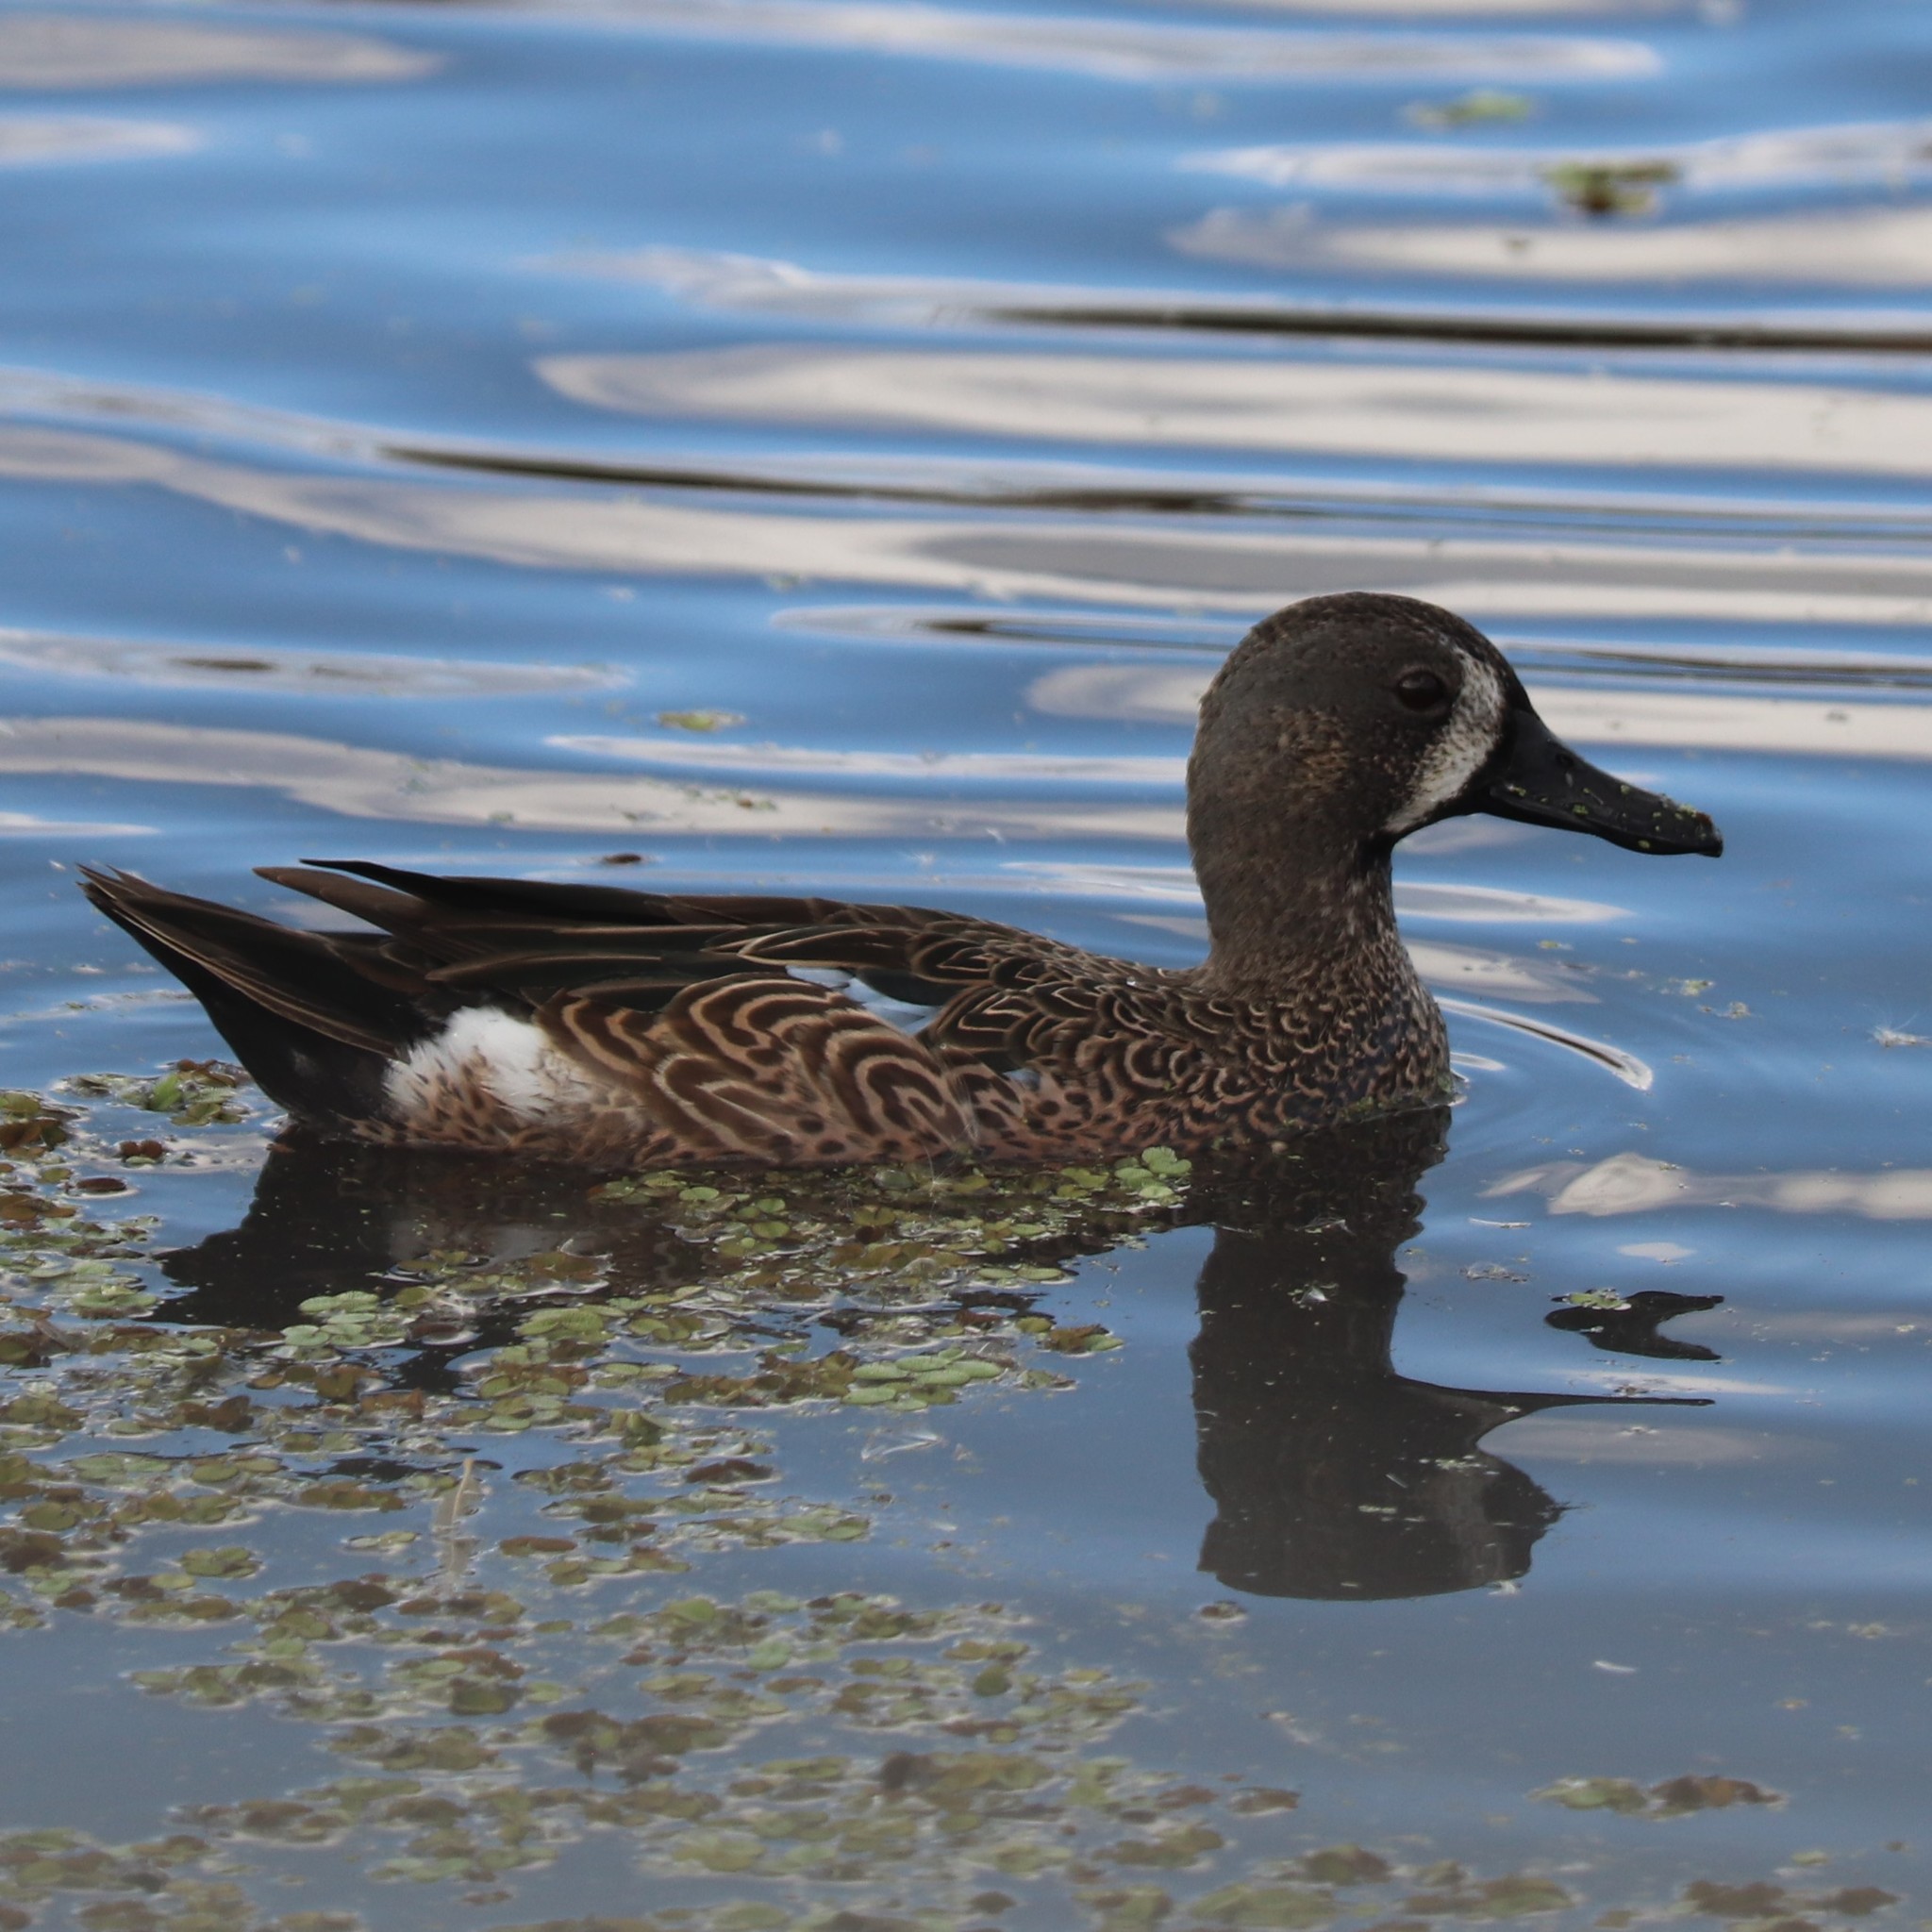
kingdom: Animalia
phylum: Chordata
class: Aves
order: Anseriformes
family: Anatidae
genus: Spatula
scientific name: Spatula discors
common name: Blue-winged teal
